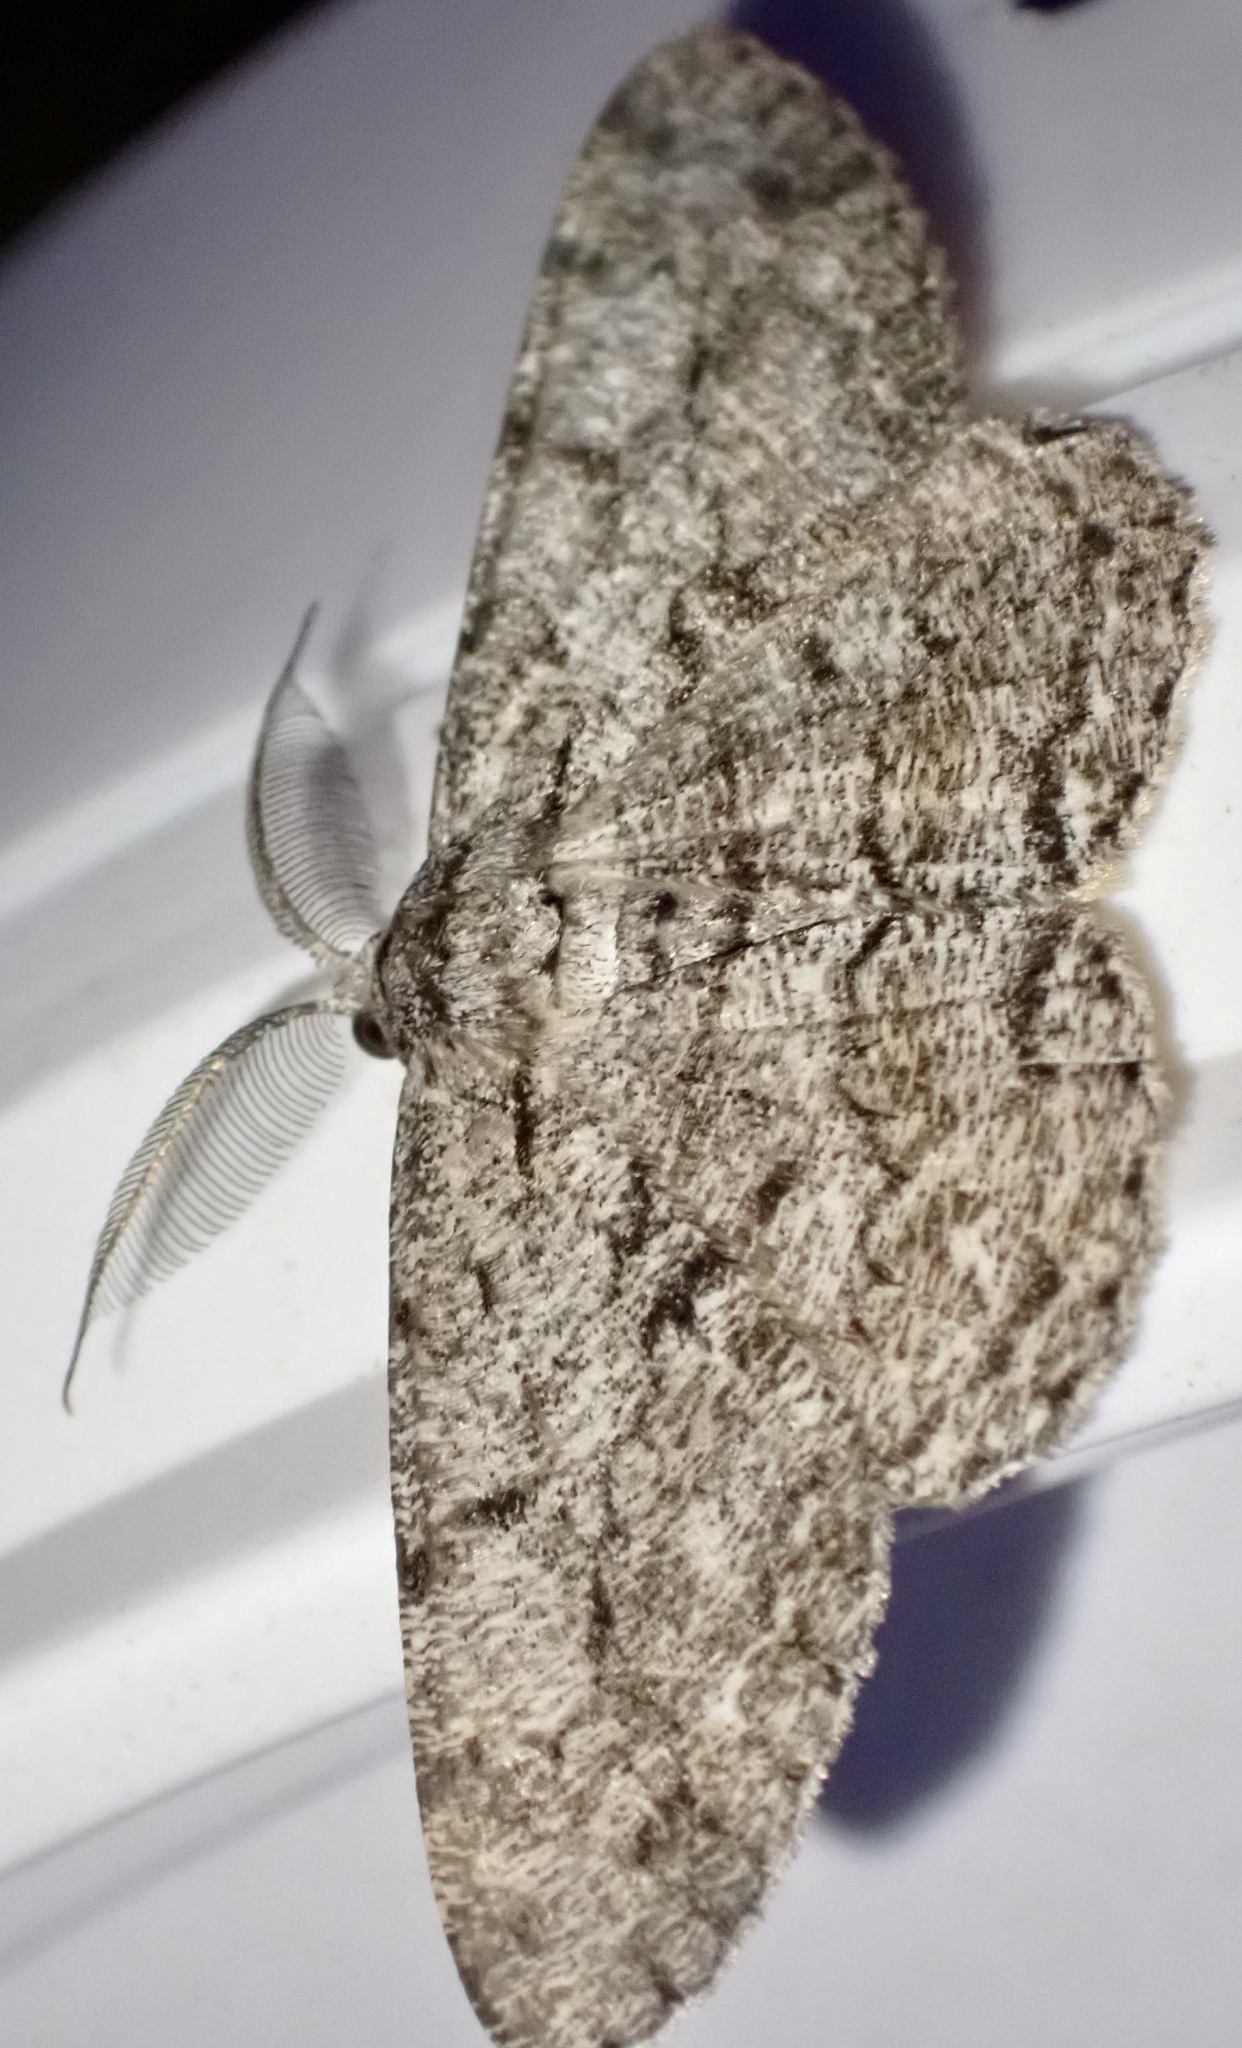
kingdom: Animalia
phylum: Arthropoda
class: Insecta
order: Lepidoptera
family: Geometridae
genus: Hypomecis
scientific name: Hypomecis roboraria
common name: Great oak beauty
